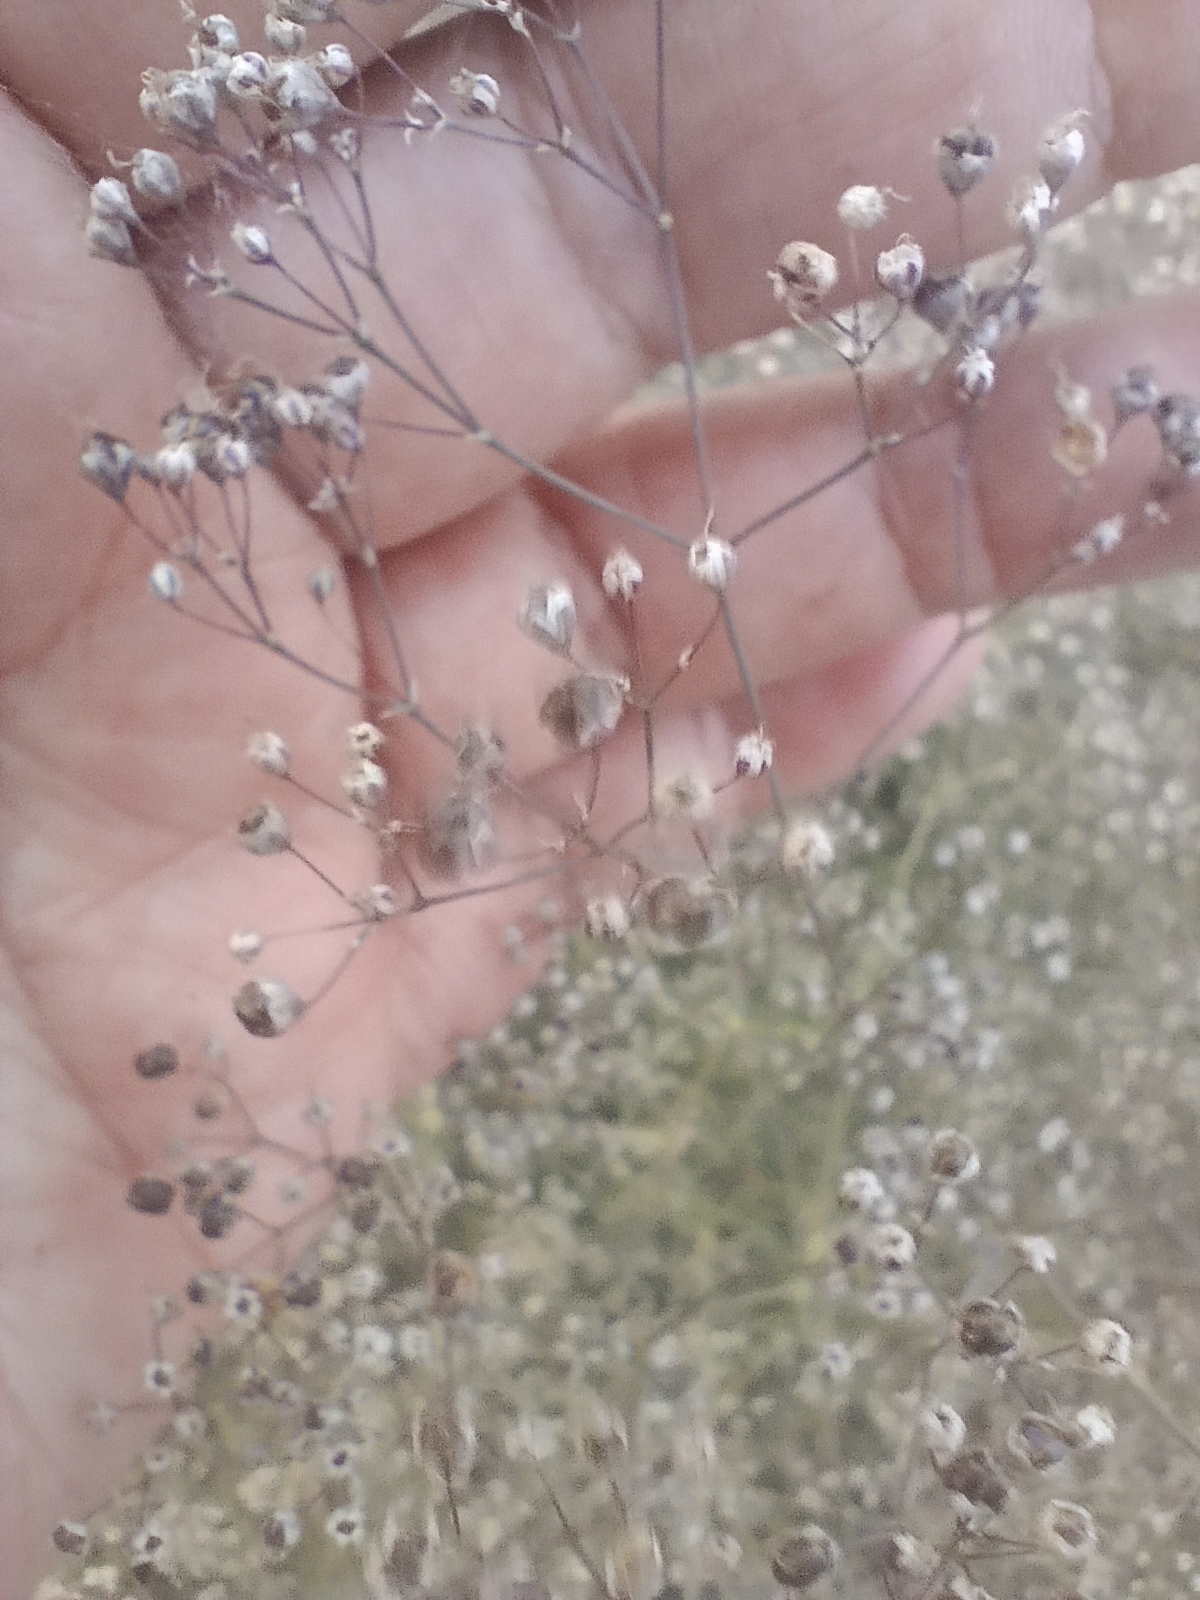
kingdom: Plantae
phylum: Tracheophyta
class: Magnoliopsida
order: Caryophyllales
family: Caryophyllaceae
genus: Gypsophila
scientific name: Gypsophila paniculata
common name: Baby's-breath
